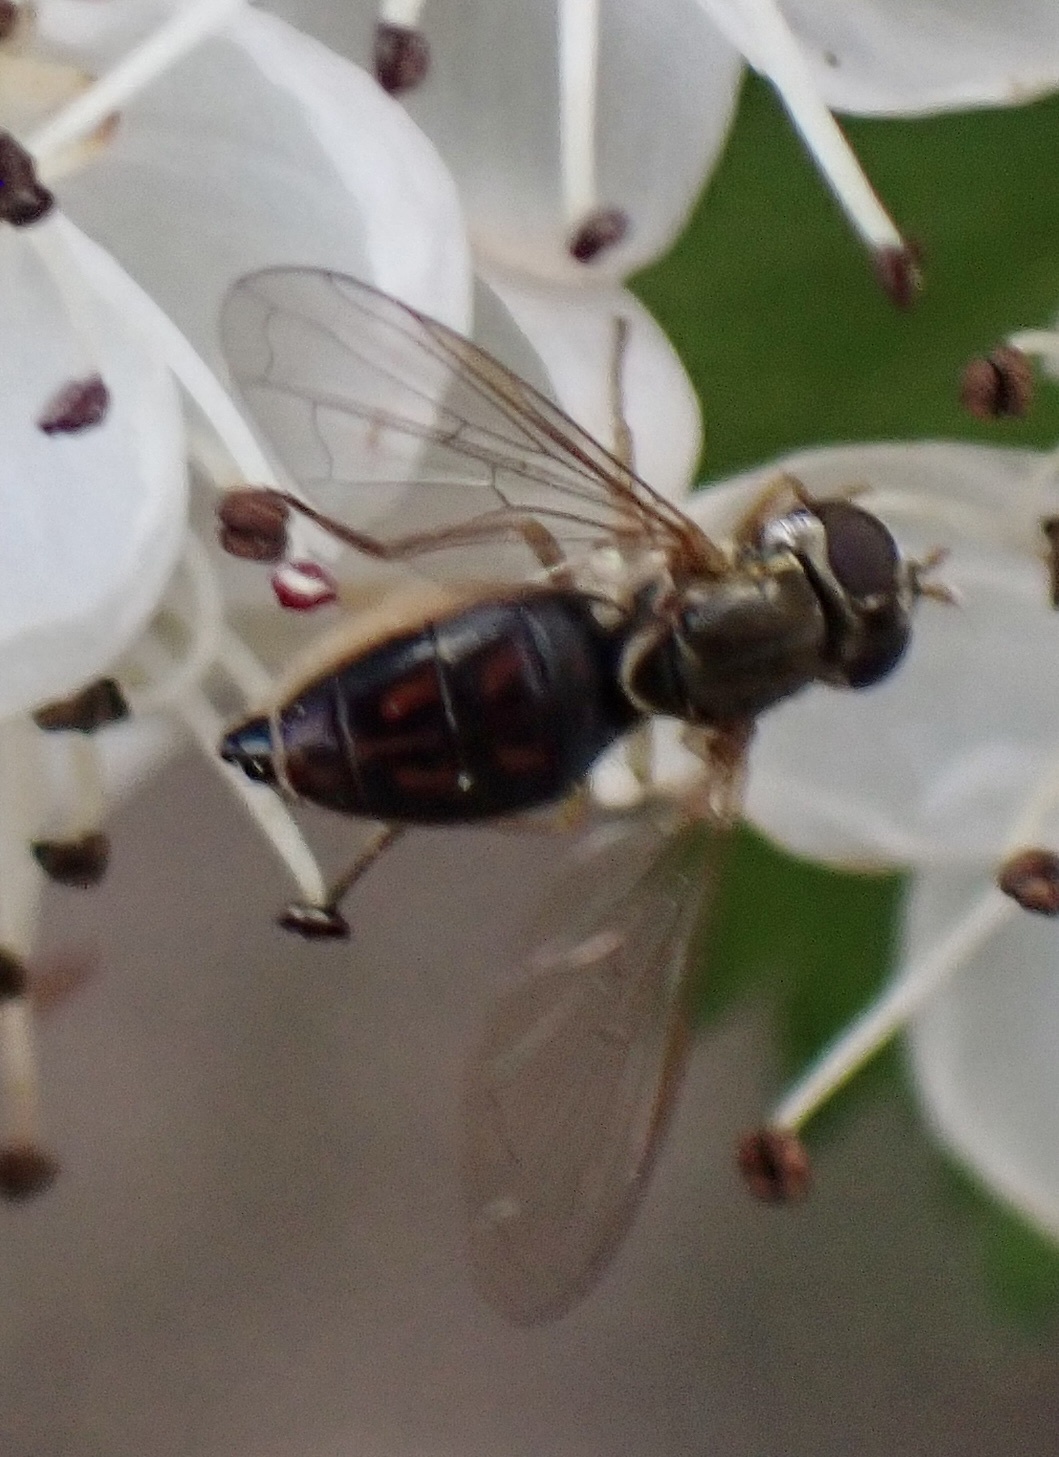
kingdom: Animalia
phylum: Arthropoda
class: Insecta
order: Diptera
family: Syrphidae
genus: Toxomerus
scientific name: Toxomerus marginatus
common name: Syrphid fly
